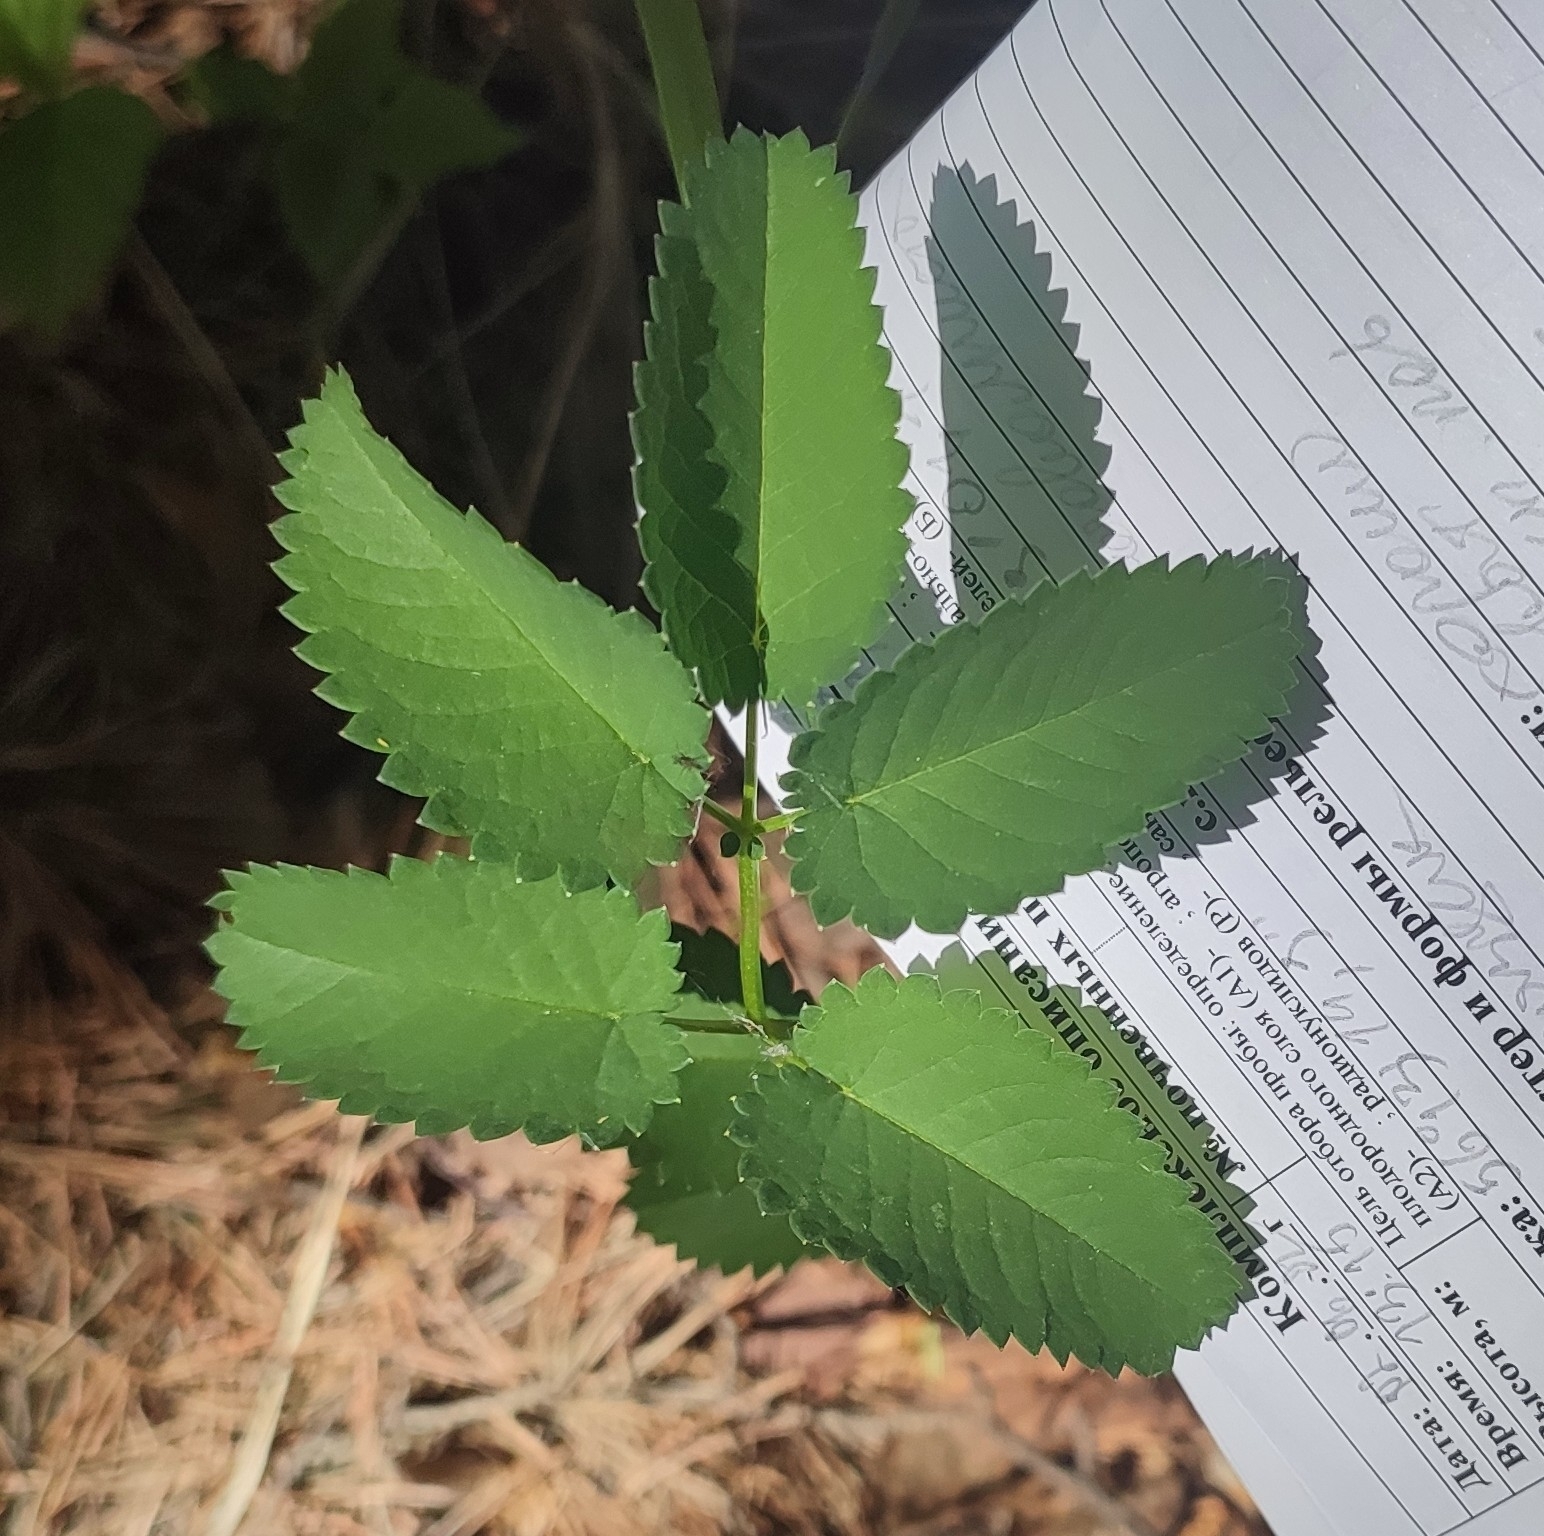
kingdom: Plantae
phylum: Tracheophyta
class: Magnoliopsida
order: Rosales
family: Rosaceae
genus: Sanguisorba
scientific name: Sanguisorba officinalis
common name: Great burnet
